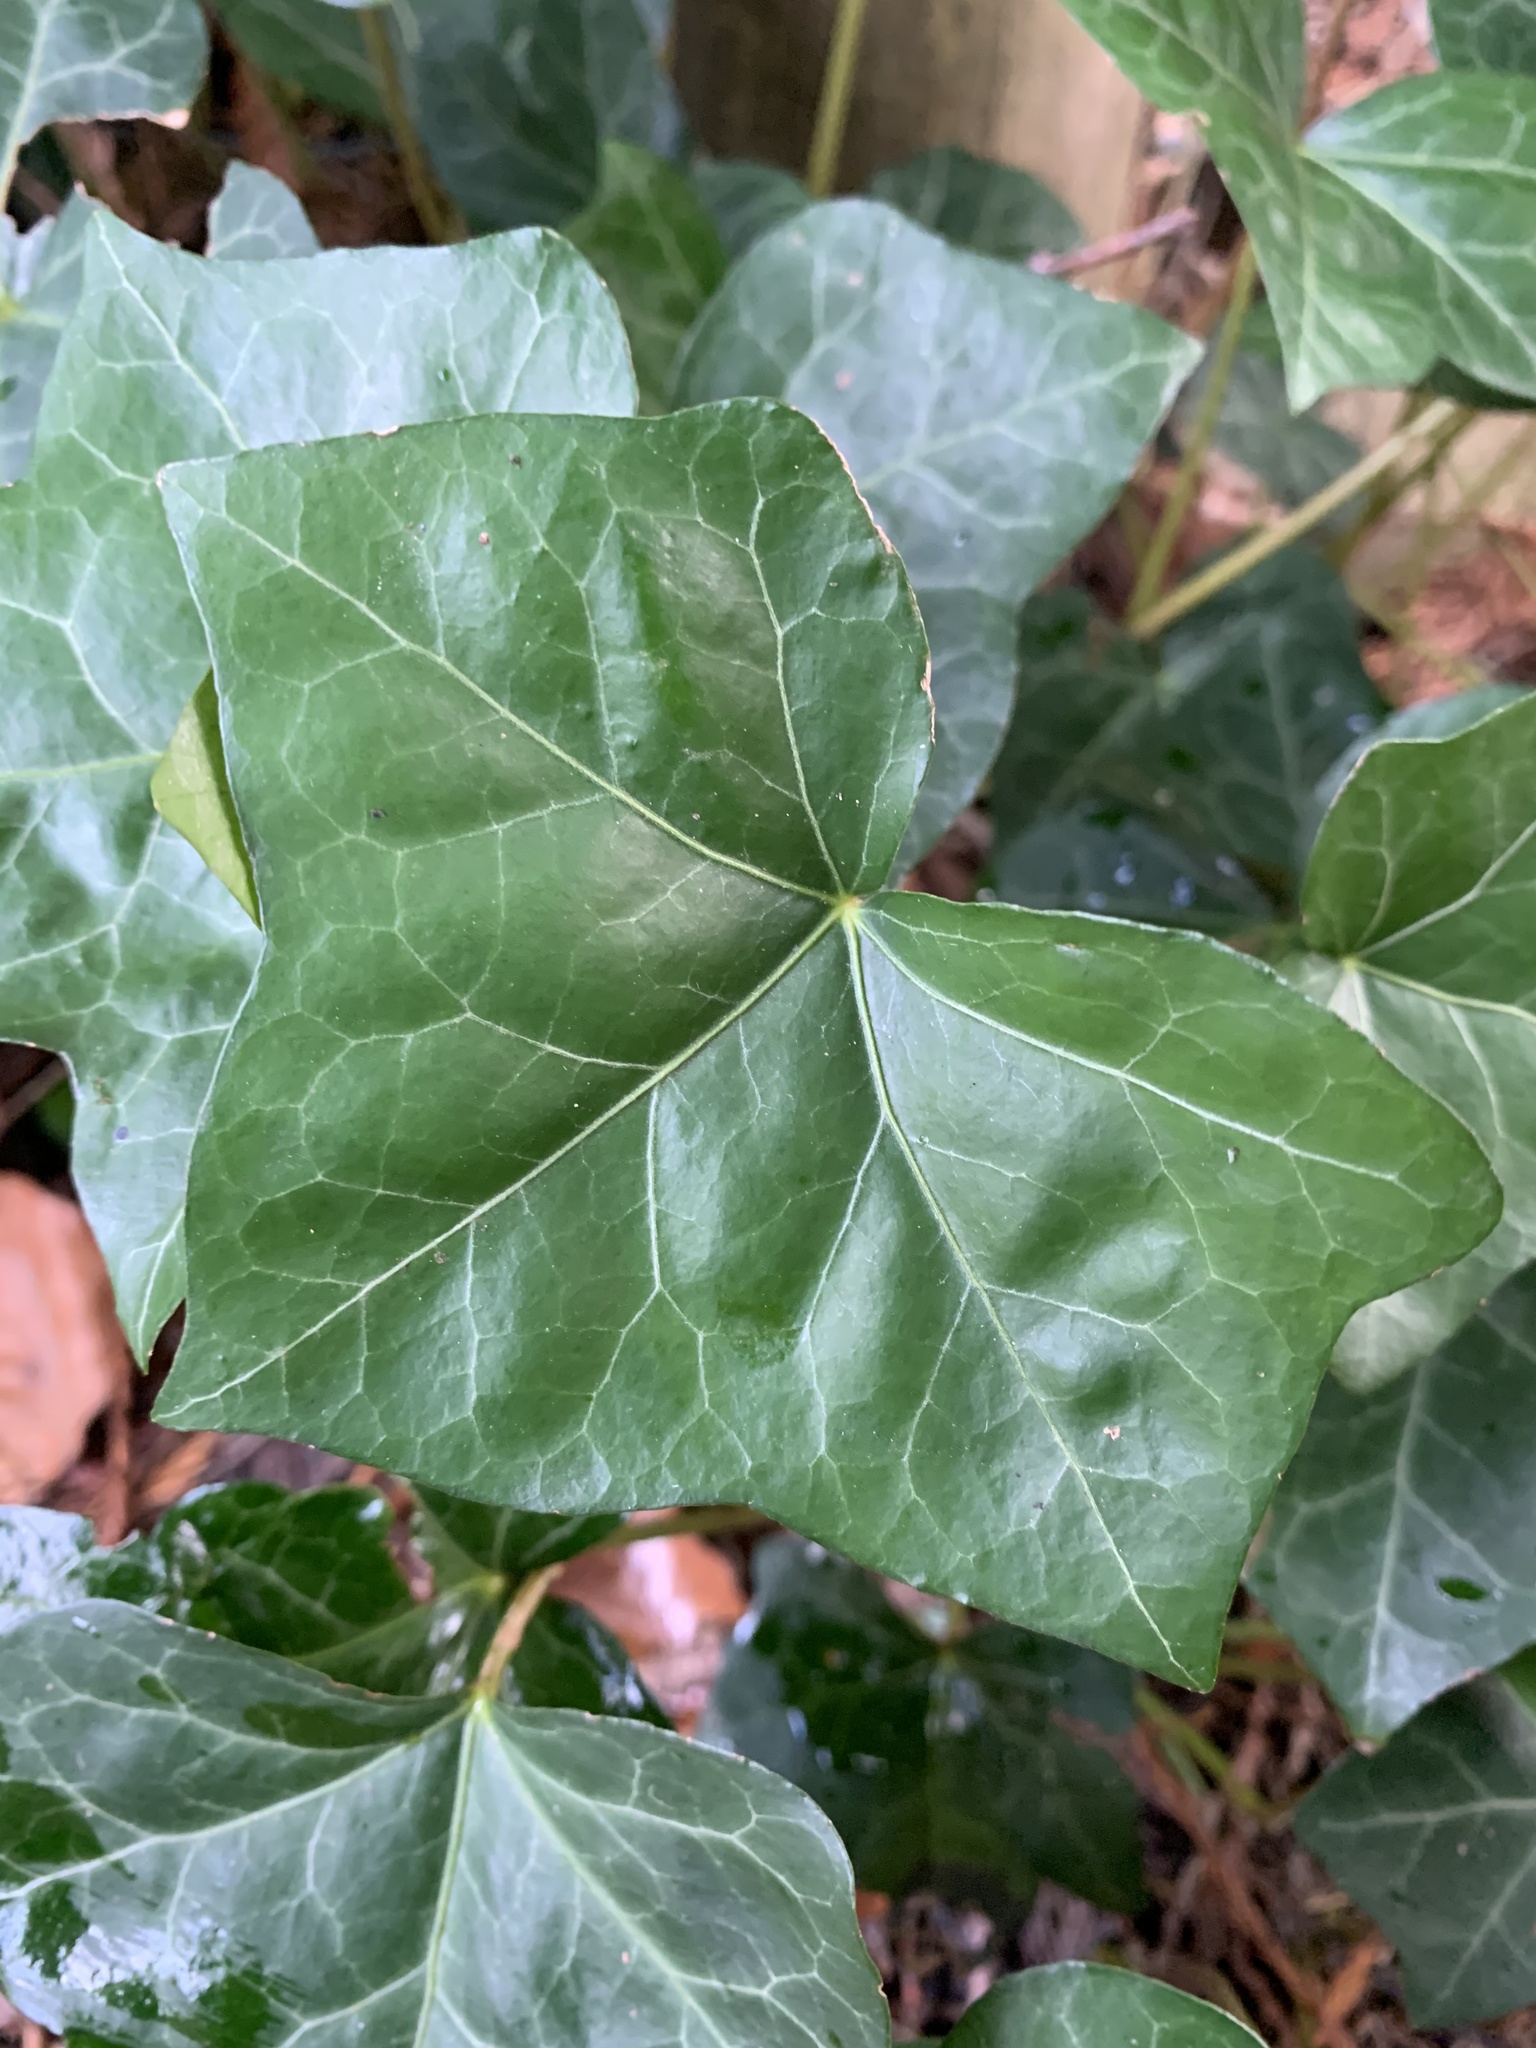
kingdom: Plantae
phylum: Tracheophyta
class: Magnoliopsida
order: Apiales
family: Araliaceae
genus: Hedera
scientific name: Hedera helix
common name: Ivy
